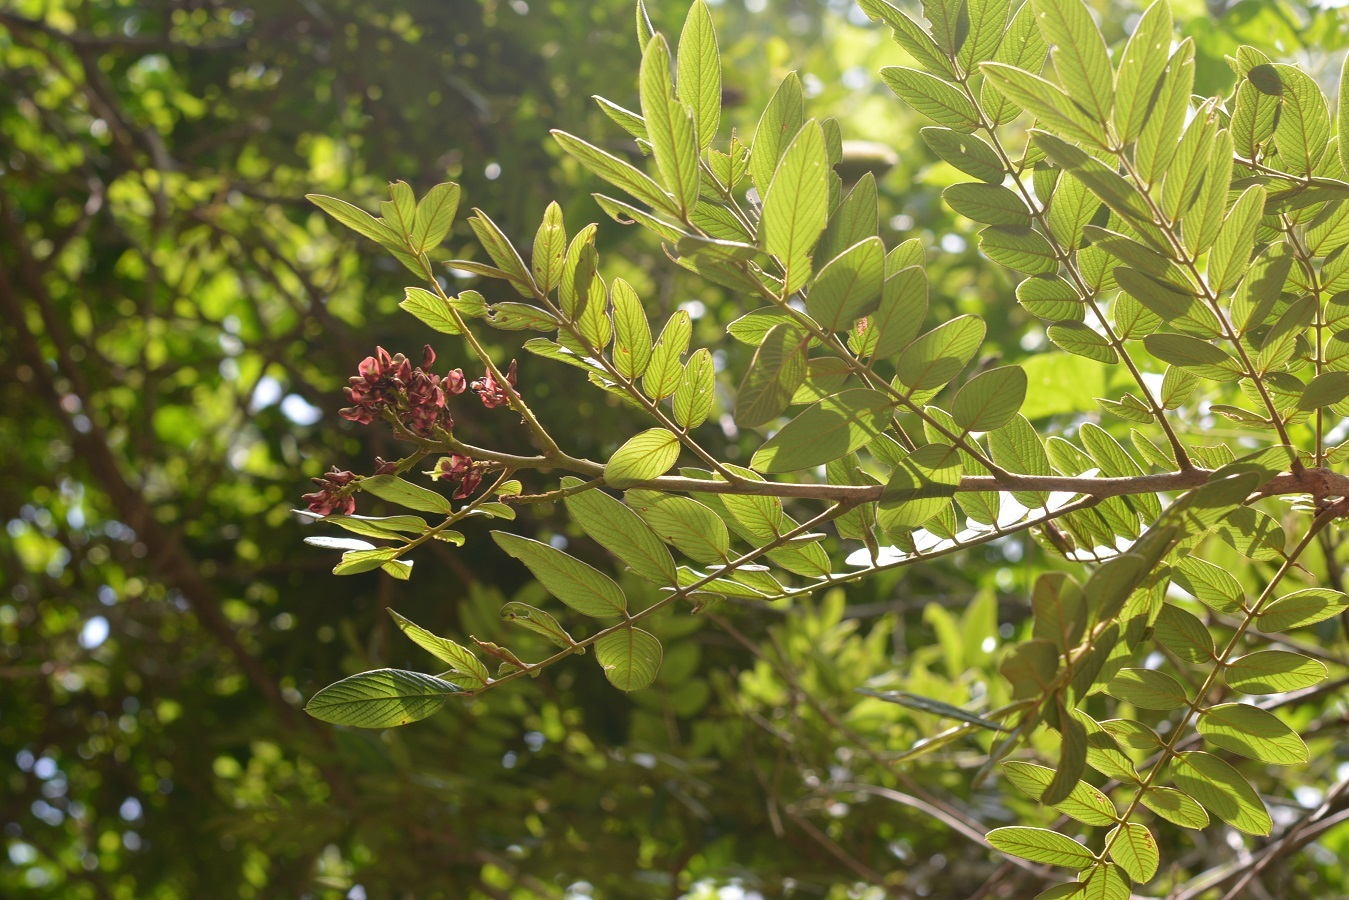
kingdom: Plantae
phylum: Tracheophyta
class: Magnoliopsida
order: Fabales
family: Fabaceae
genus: Lonchocarpus
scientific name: Lonchocarpus rugosus
